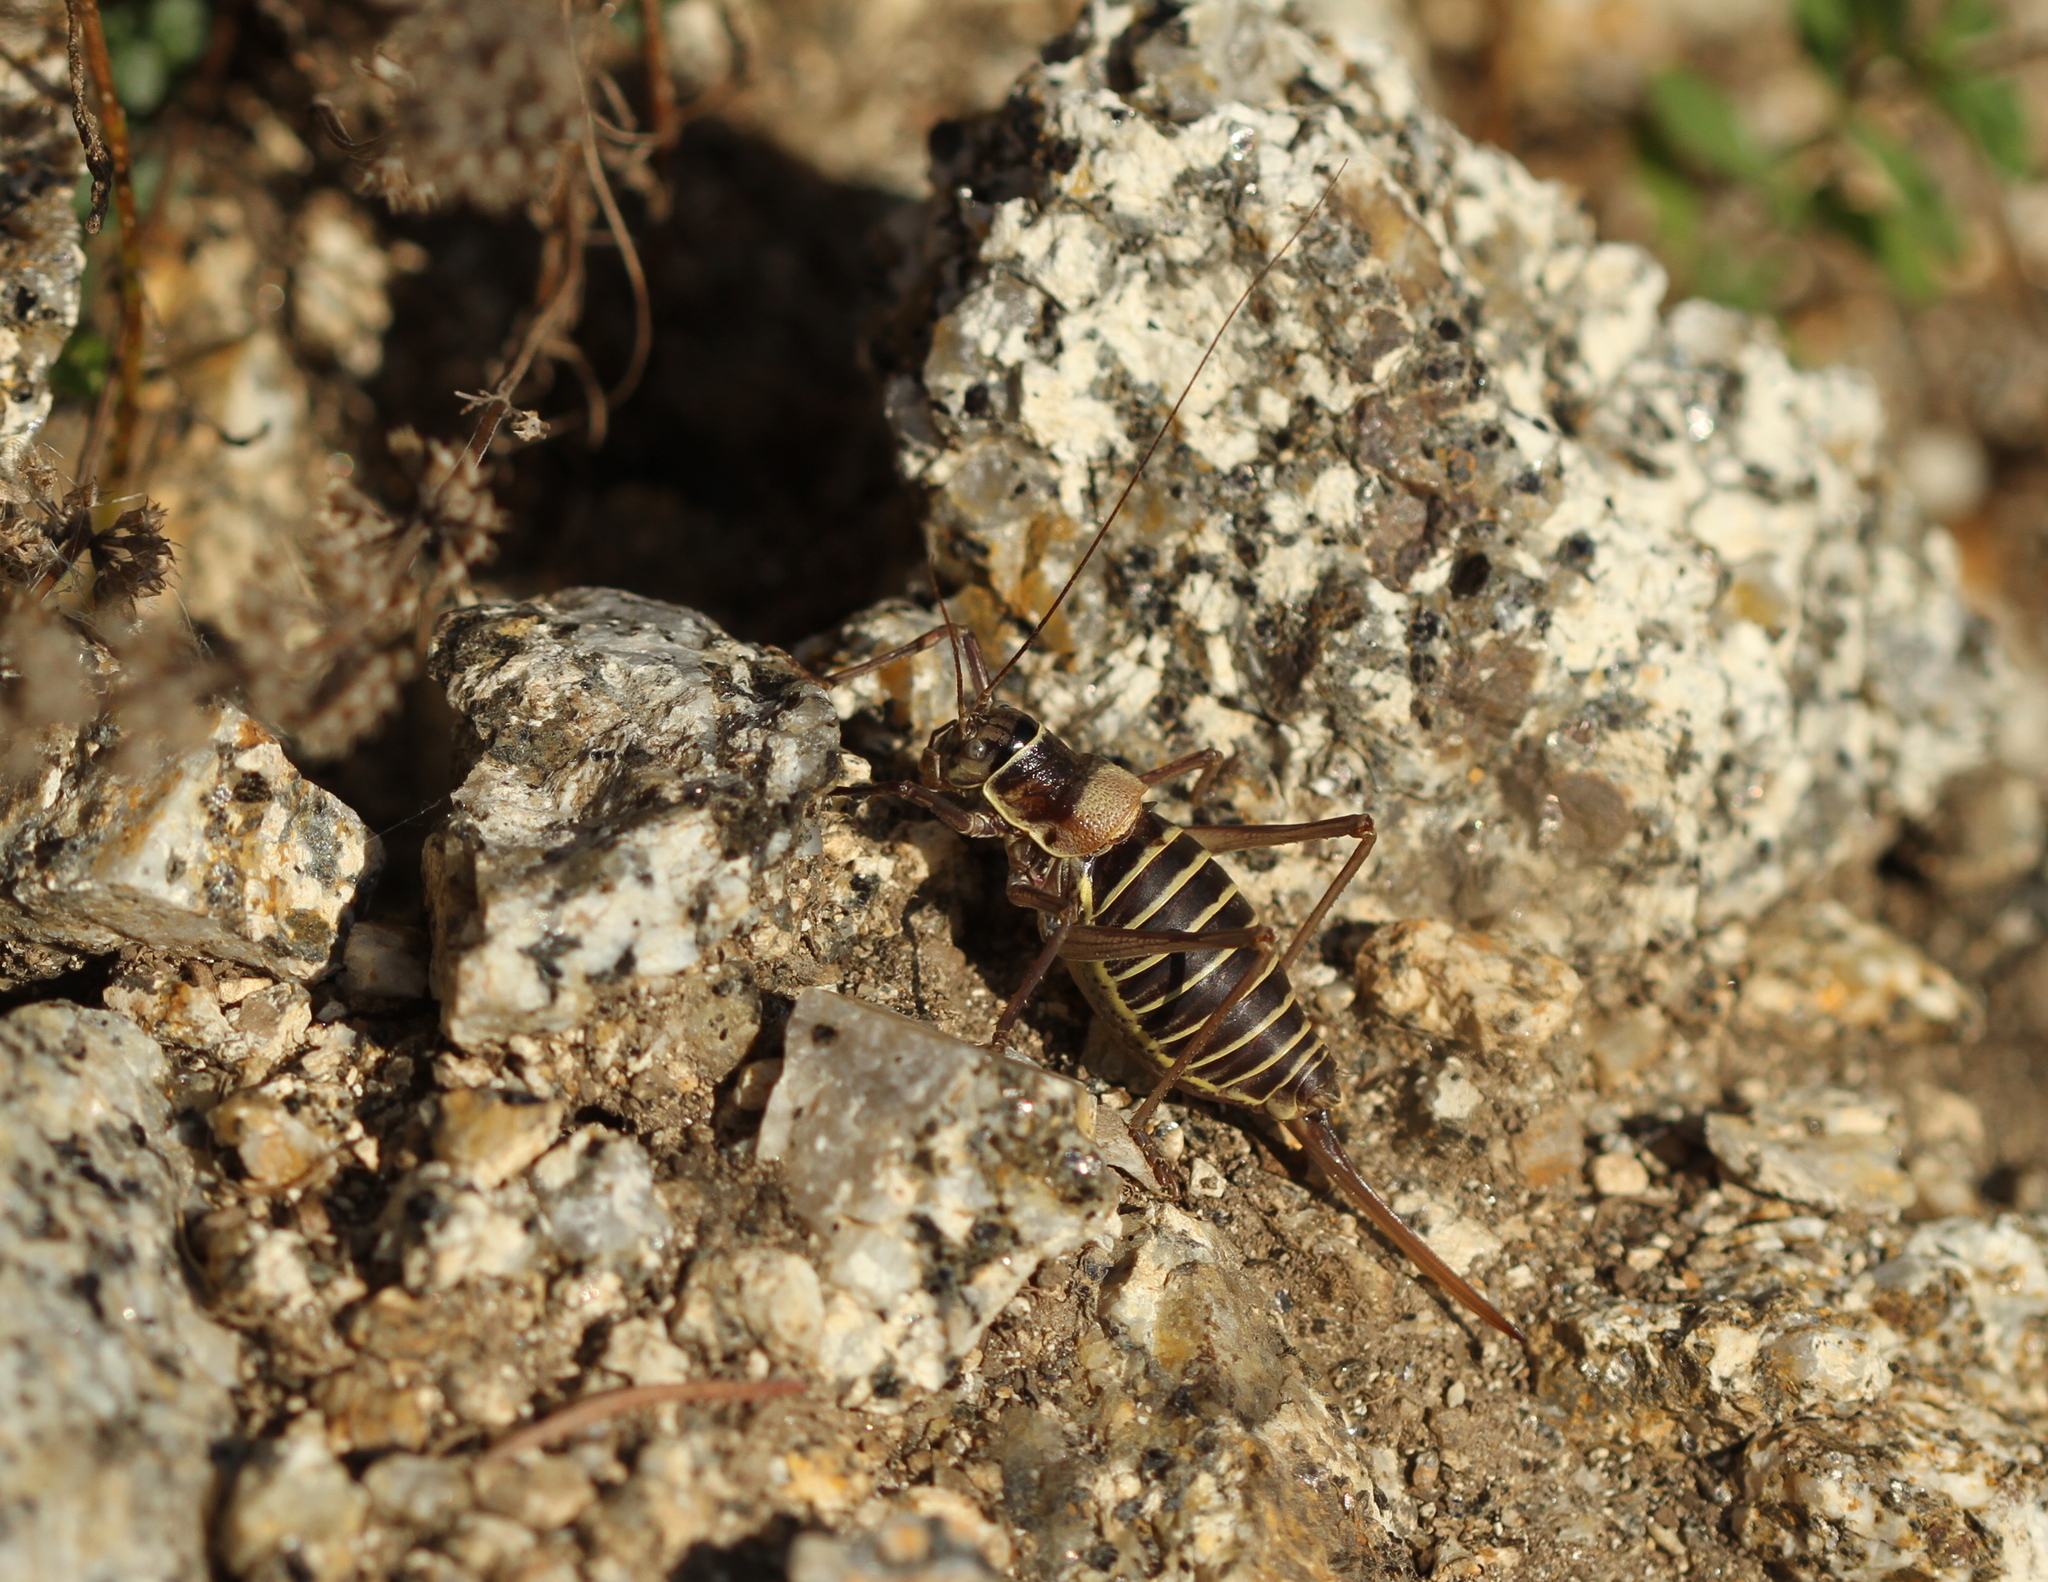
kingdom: Animalia
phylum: Arthropoda
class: Insecta
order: Orthoptera
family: Tettigoniidae
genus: Ephippiger
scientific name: Ephippiger diurnus
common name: Western saddle bush-cricket
